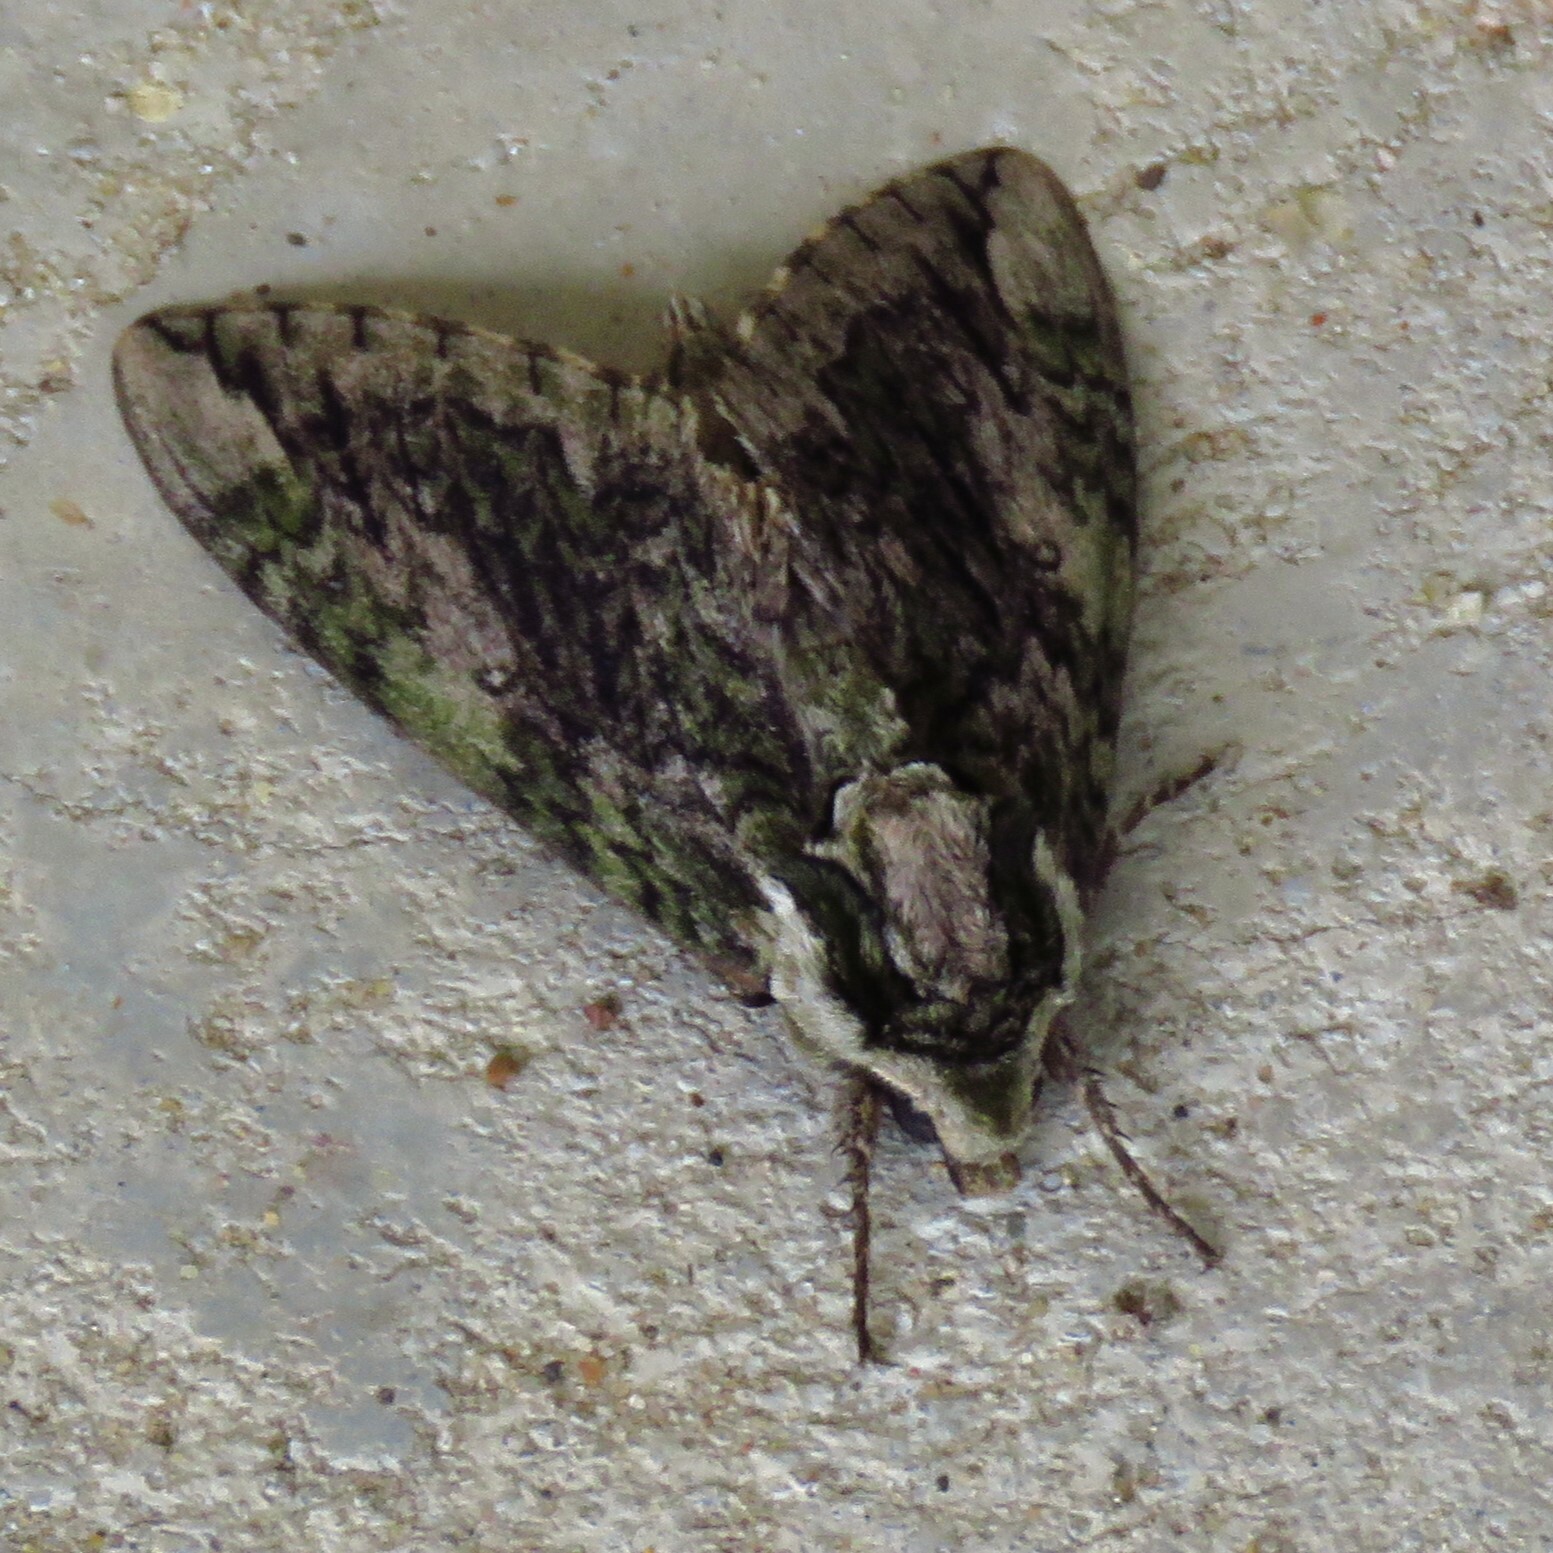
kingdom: Animalia
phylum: Arthropoda
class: Insecta
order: Lepidoptera
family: Sphingidae
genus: Ceratomia
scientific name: Ceratomia hageni
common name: Hagen's sphinx
